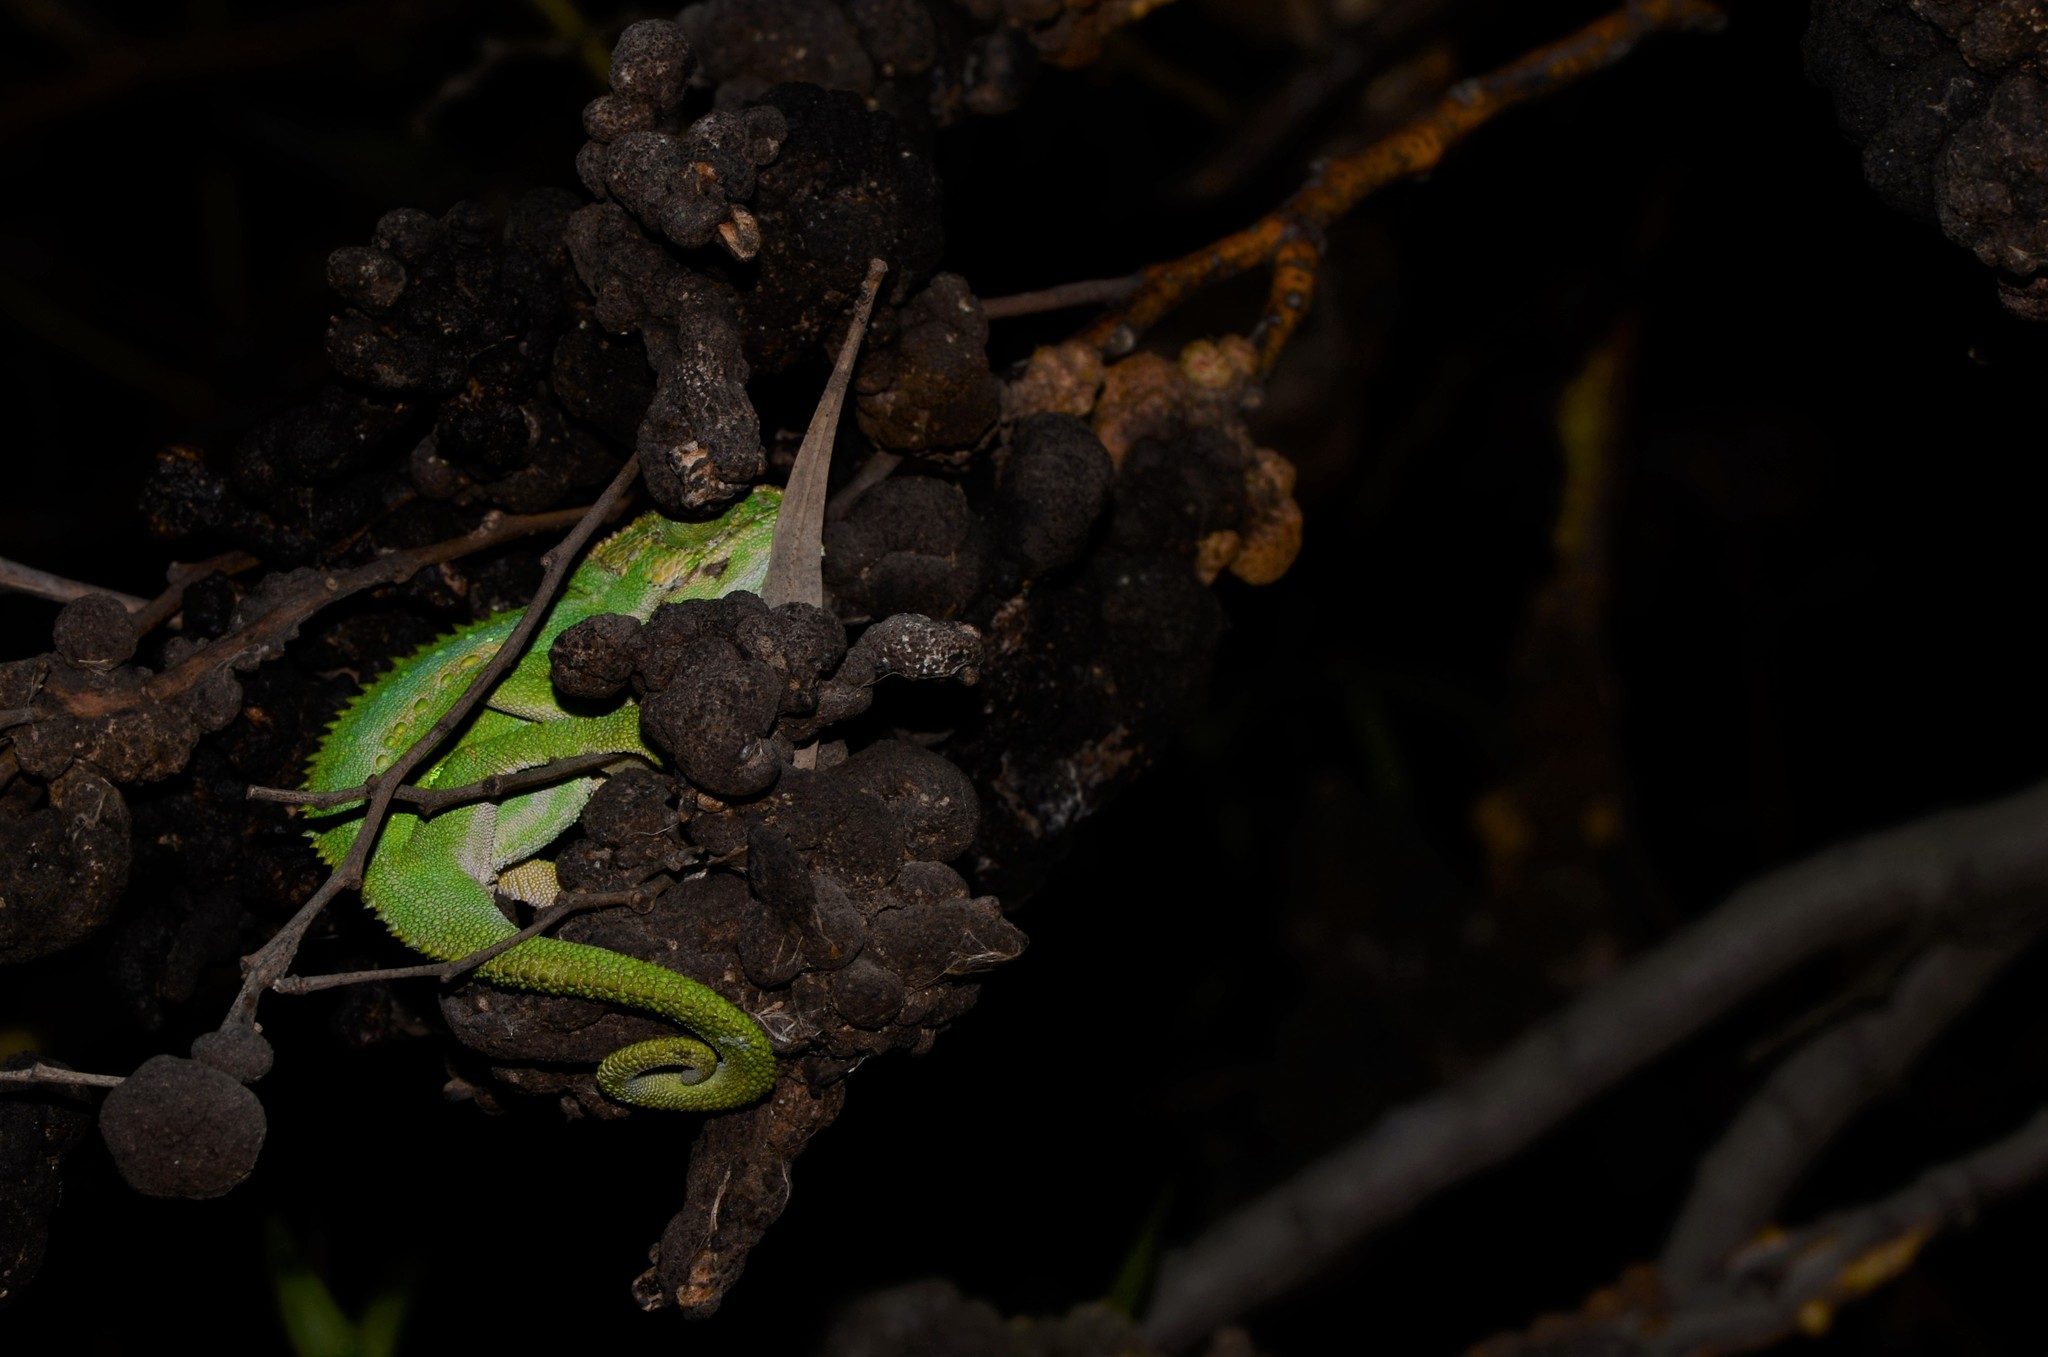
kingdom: Animalia
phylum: Chordata
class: Squamata
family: Chamaeleonidae
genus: Bradypodion
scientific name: Bradypodion pumilum
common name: Cape dwarf chameleon
